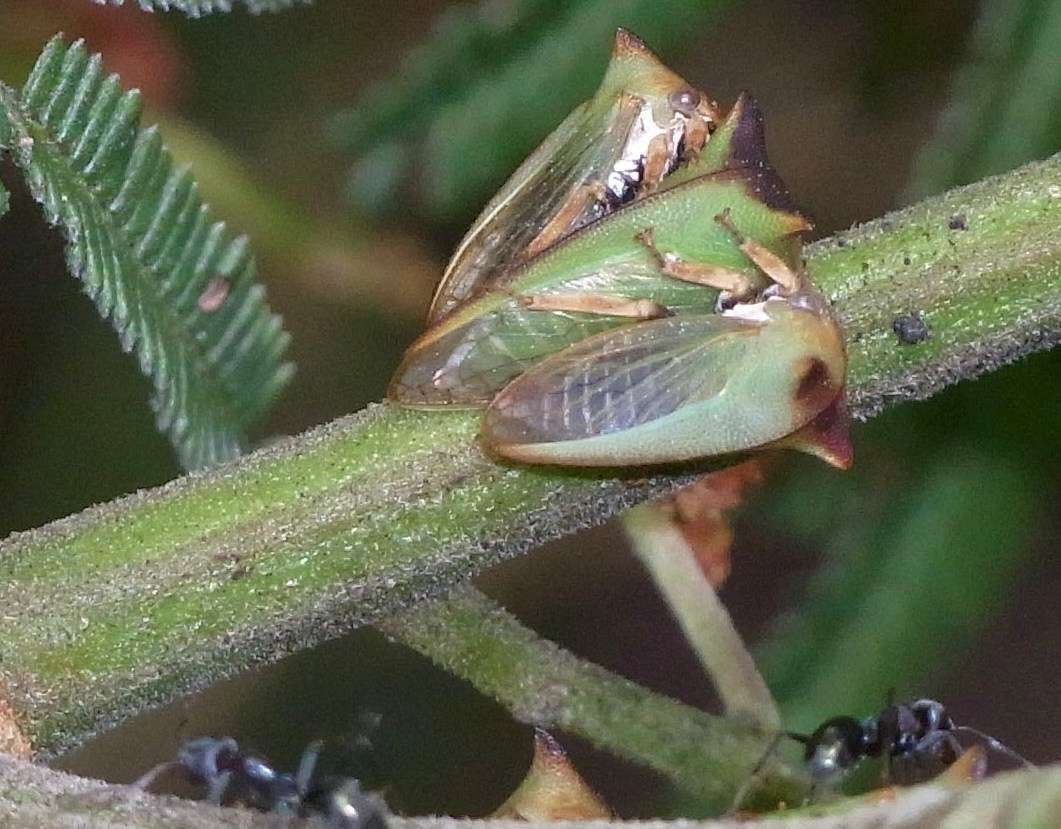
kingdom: Animalia
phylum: Arthropoda
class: Insecta
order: Hemiptera
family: Membracidae
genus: Sextius
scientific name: Sextius virescens
